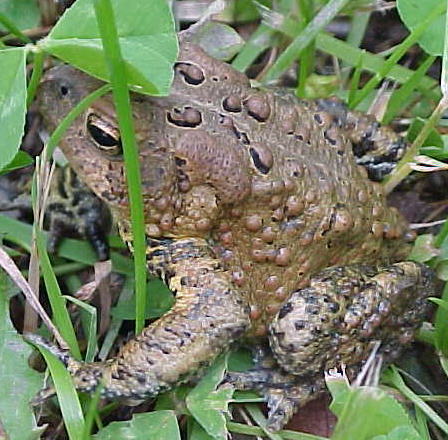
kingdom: Animalia
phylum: Chordata
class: Amphibia
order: Anura
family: Bufonidae
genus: Anaxyrus
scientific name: Anaxyrus americanus
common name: American toad
